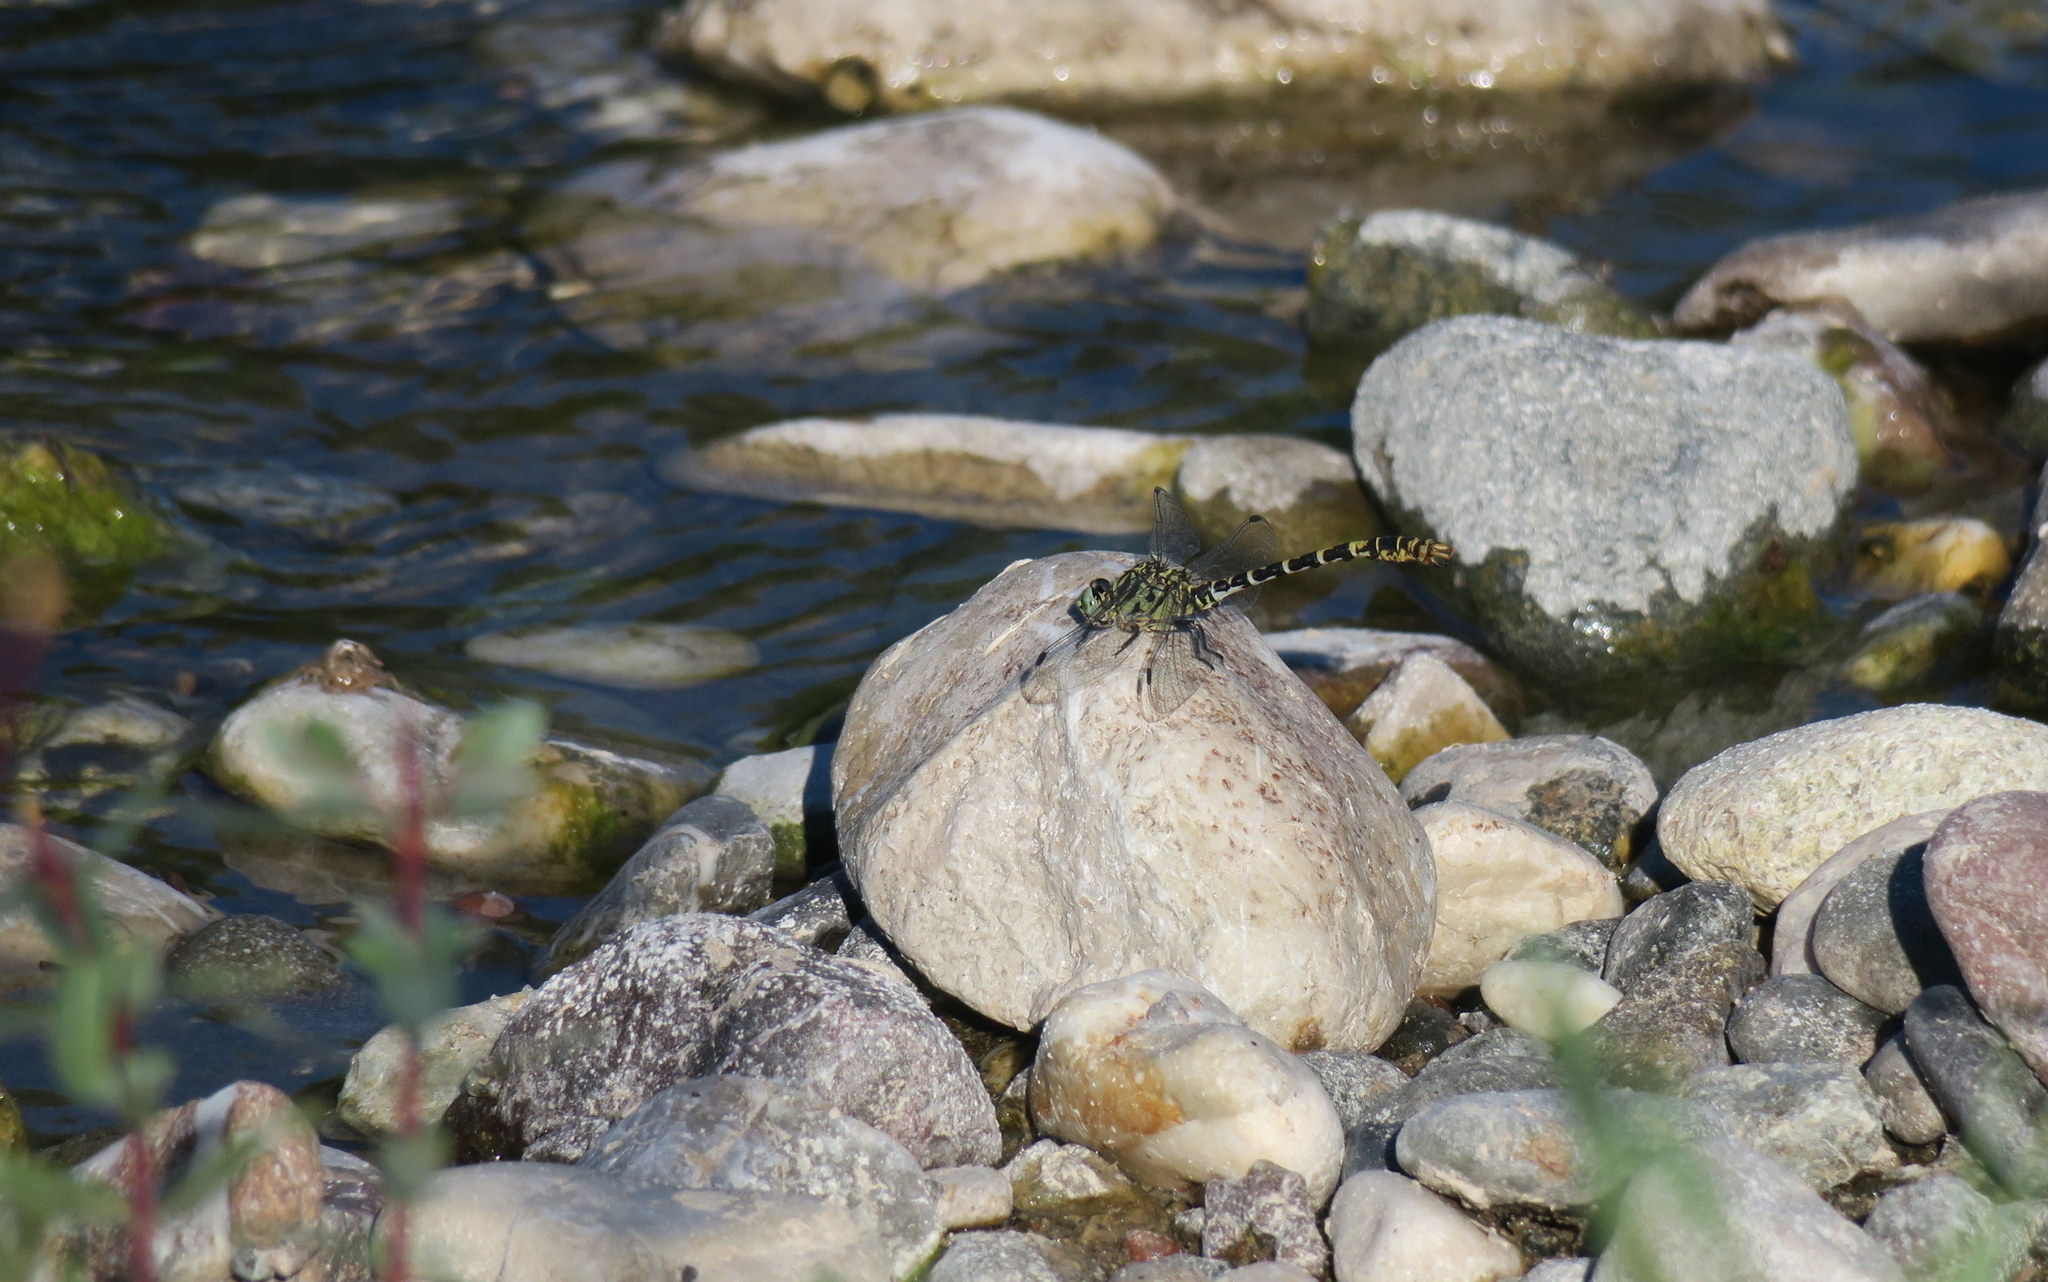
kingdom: Animalia
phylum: Arthropoda
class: Insecta
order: Odonata
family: Gomphidae
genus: Onychogomphus
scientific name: Onychogomphus forcipatus
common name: Small pincertail
